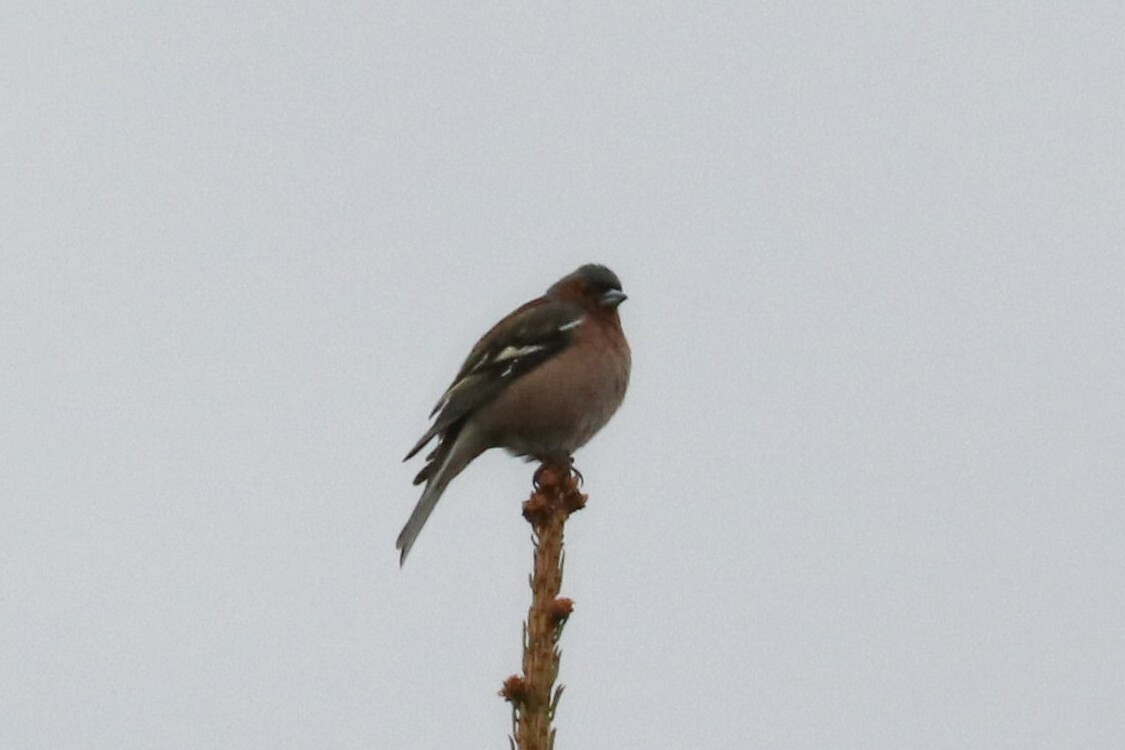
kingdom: Animalia
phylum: Chordata
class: Aves
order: Passeriformes
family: Fringillidae
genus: Fringilla
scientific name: Fringilla coelebs
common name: Common chaffinch
